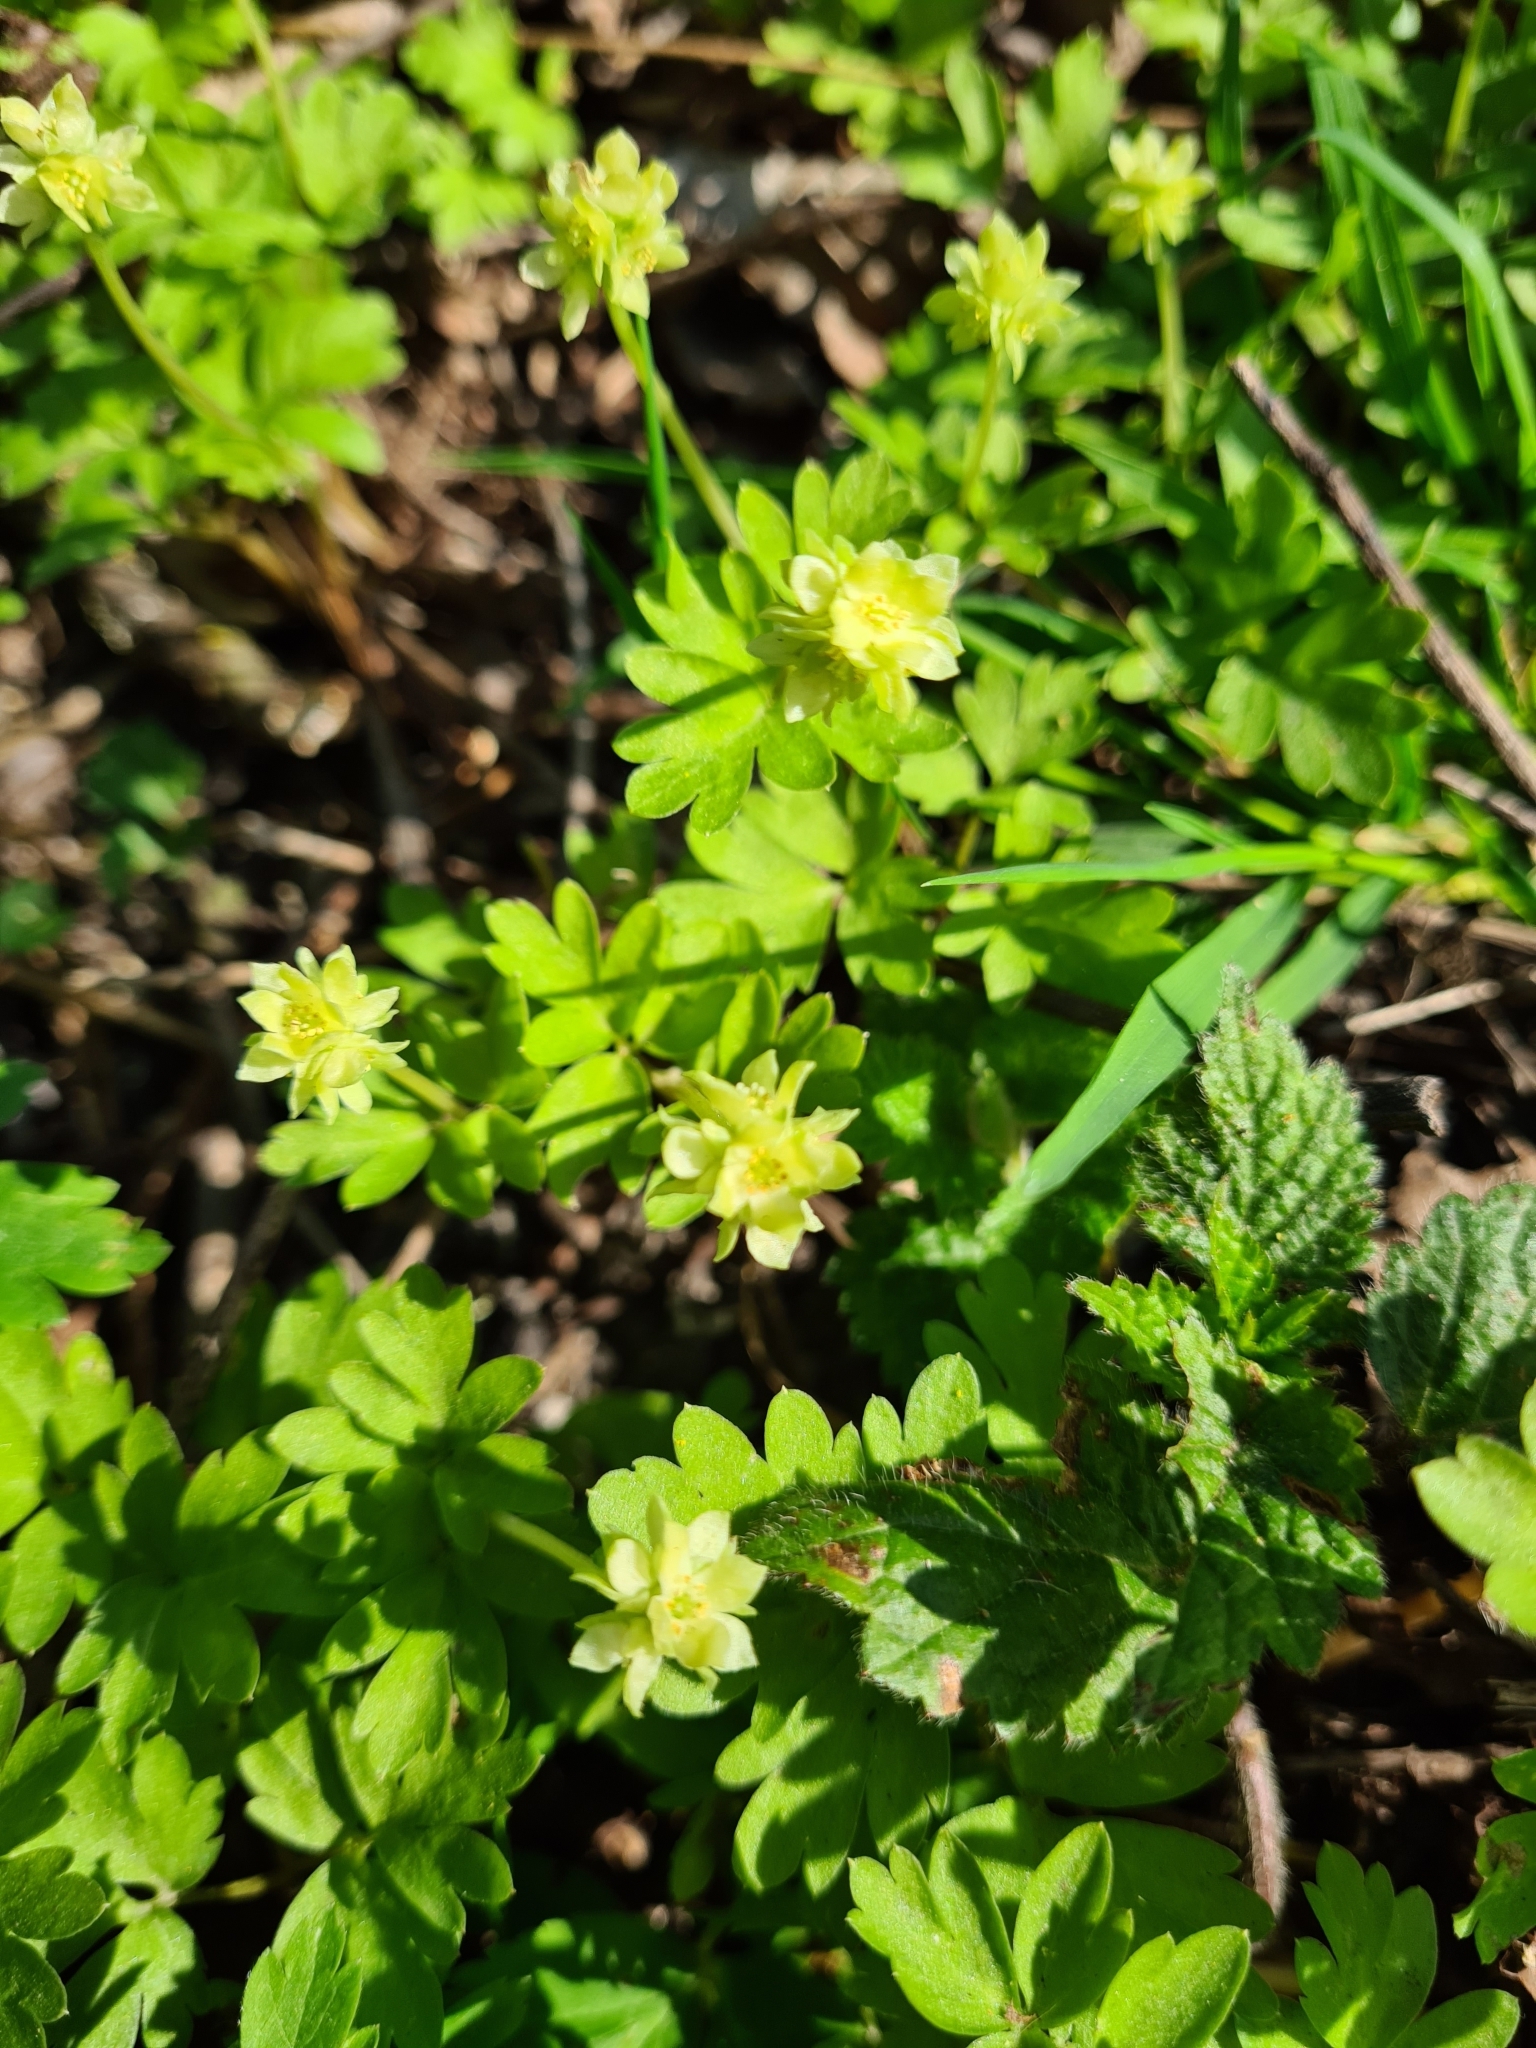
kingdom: Plantae
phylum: Tracheophyta
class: Magnoliopsida
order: Dipsacales
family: Viburnaceae
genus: Adoxa
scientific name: Adoxa moschatellina
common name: Moschatel
